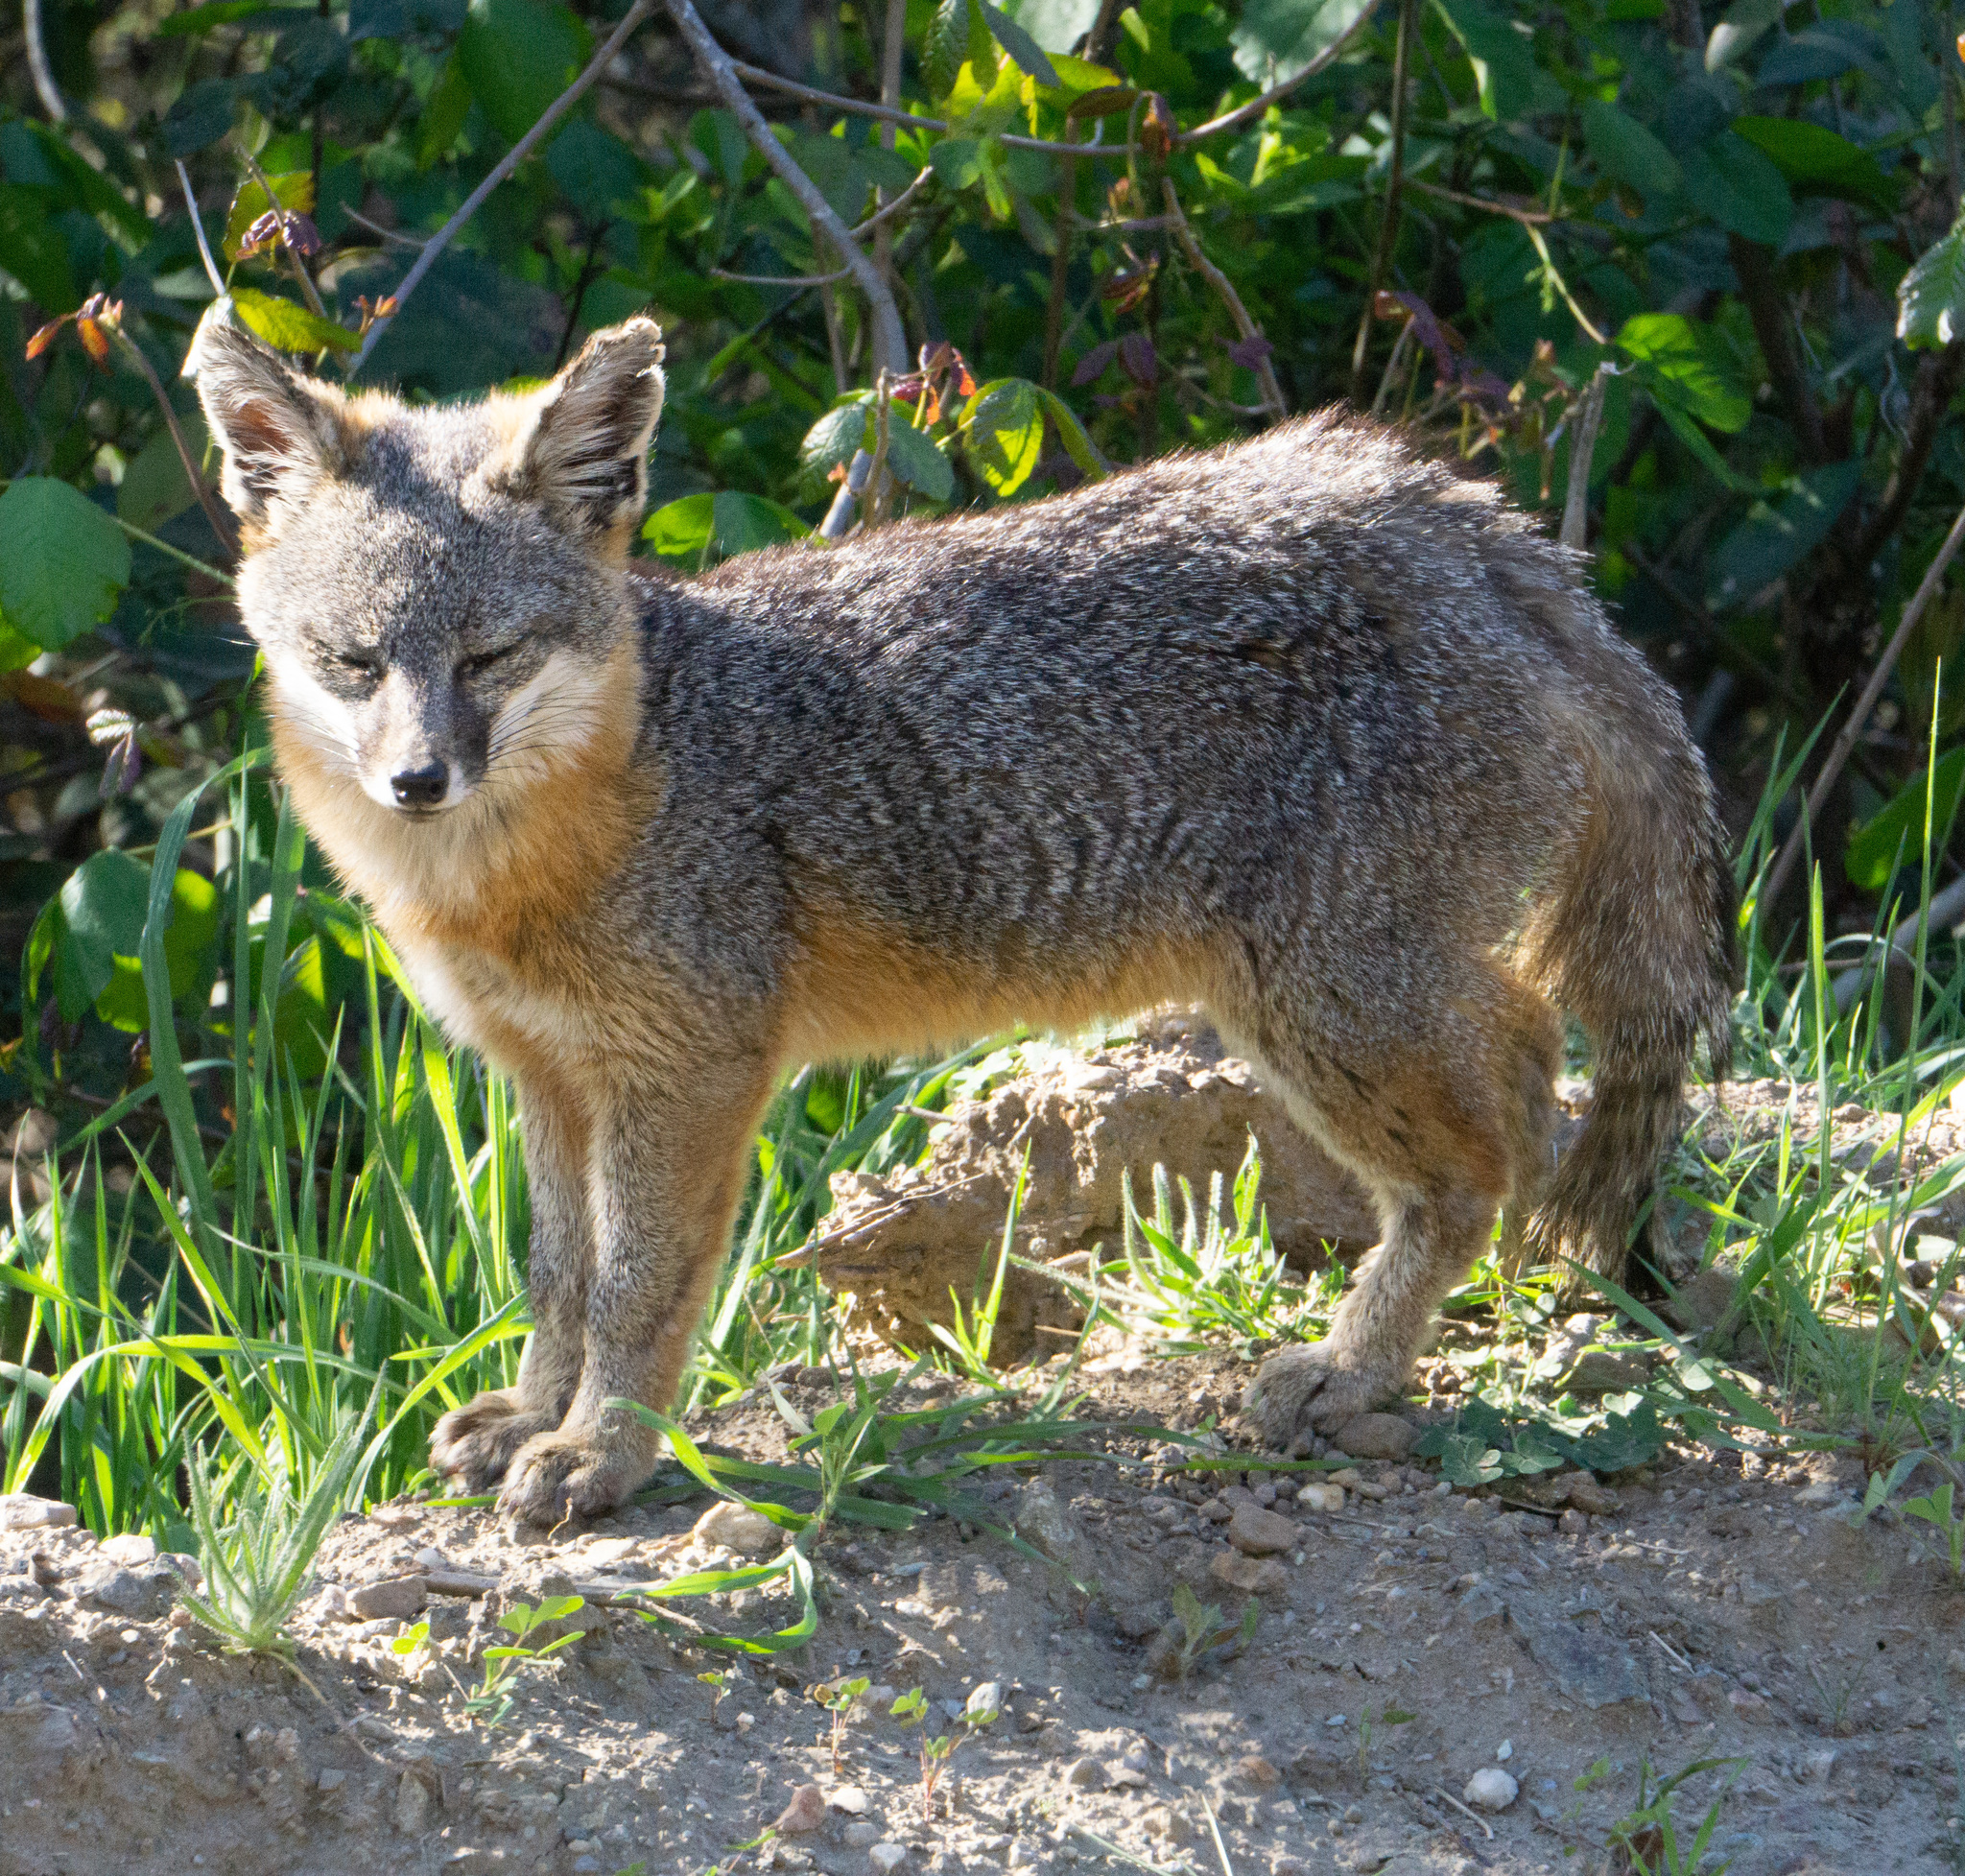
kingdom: Animalia
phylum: Chordata
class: Mammalia
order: Carnivora
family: Canidae
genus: Urocyon
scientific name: Urocyon littoralis
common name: Island gray fox
